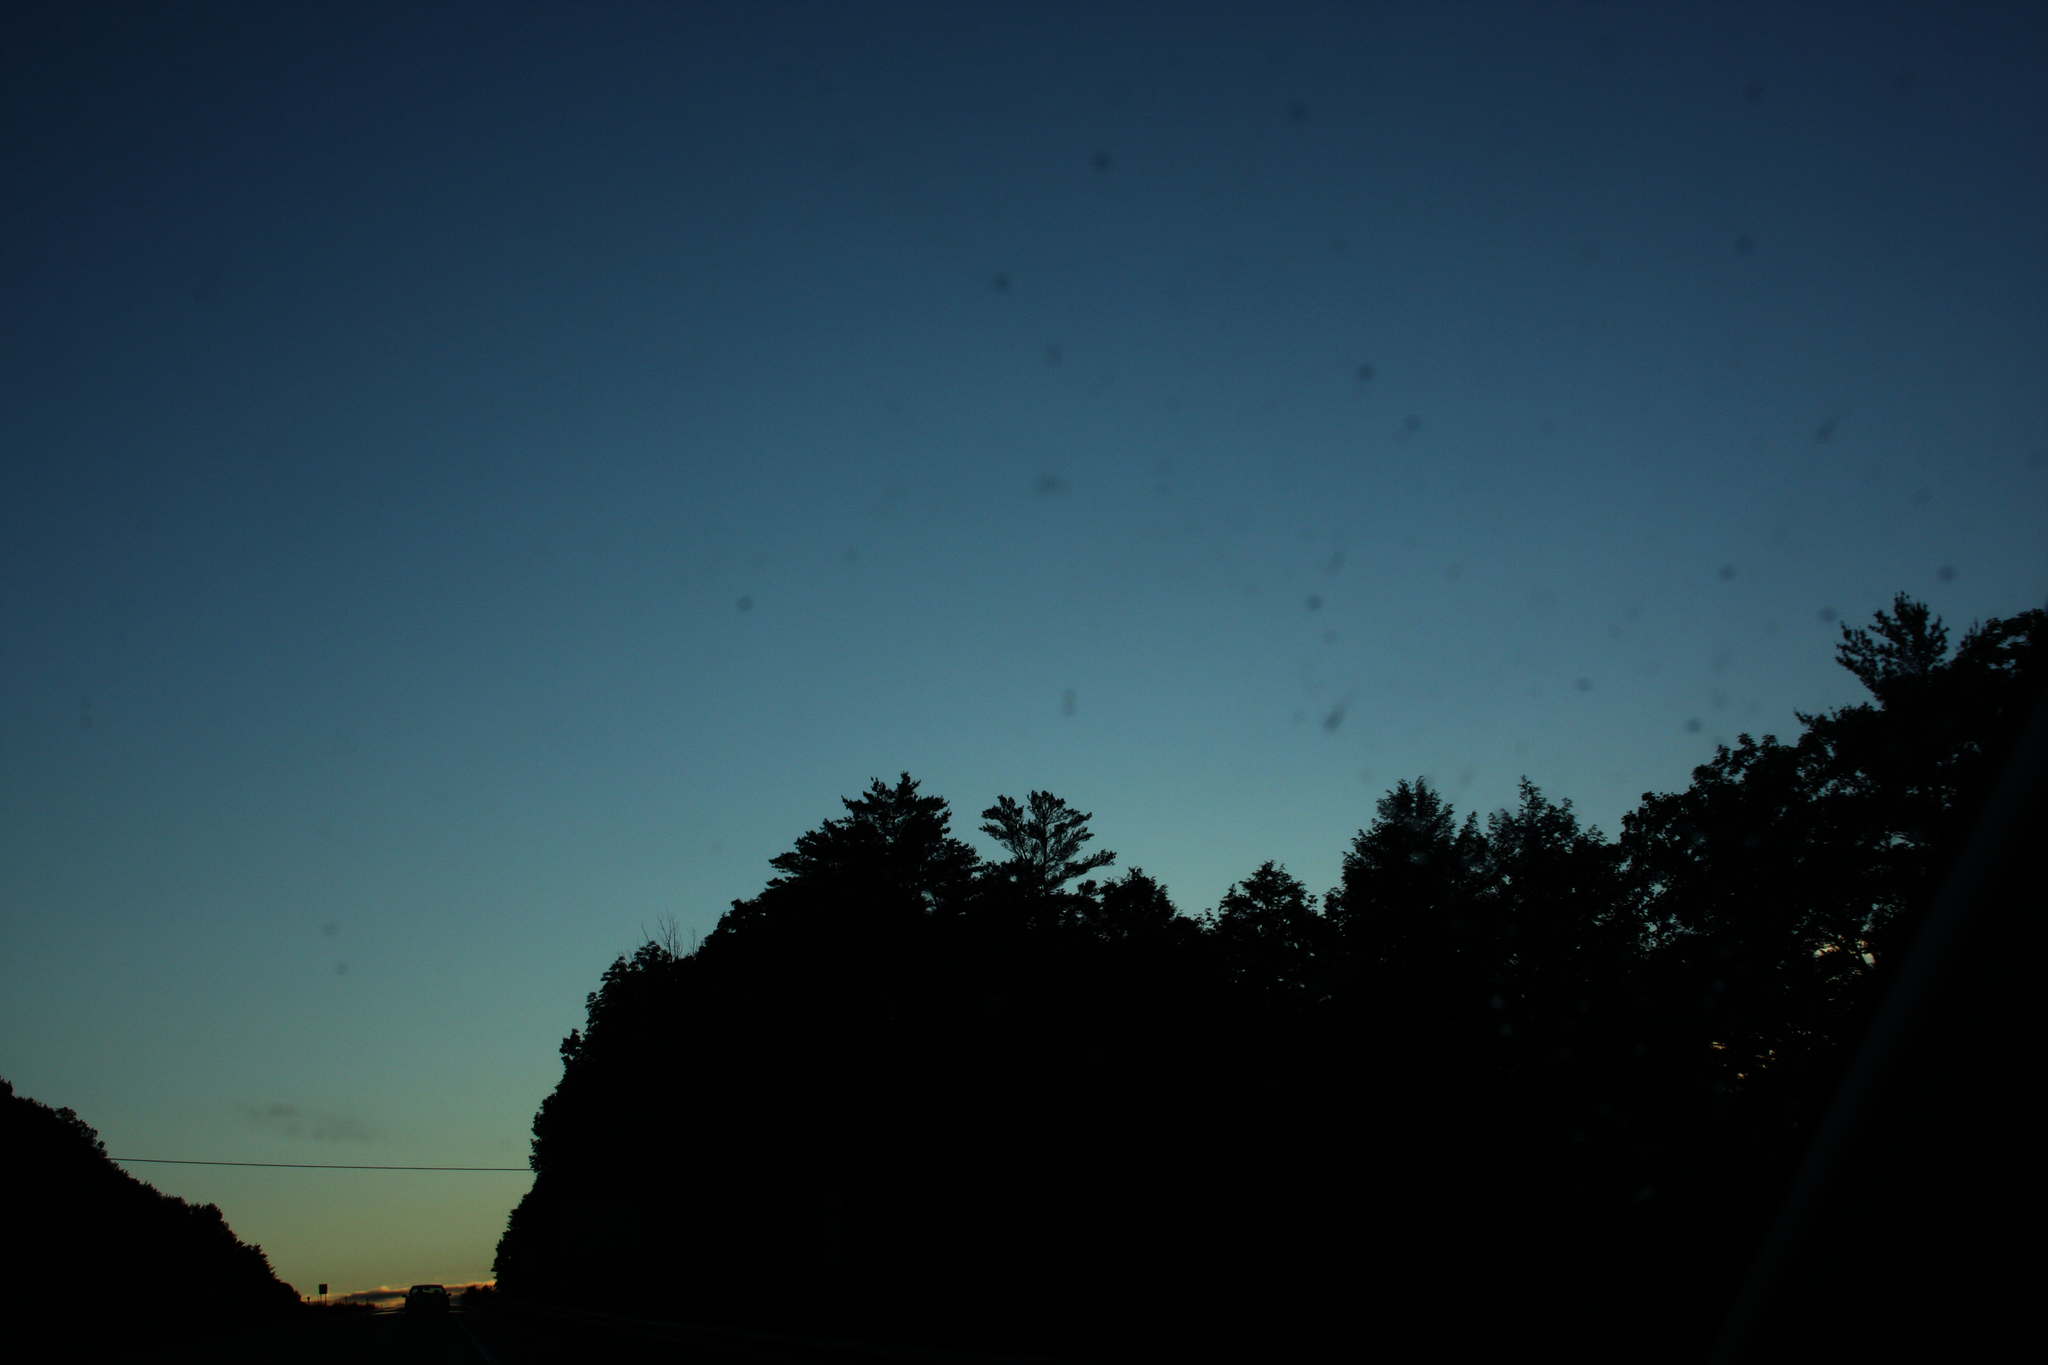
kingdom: Plantae
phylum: Tracheophyta
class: Pinopsida
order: Pinales
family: Pinaceae
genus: Pinus
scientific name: Pinus strobus
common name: Weymouth pine
